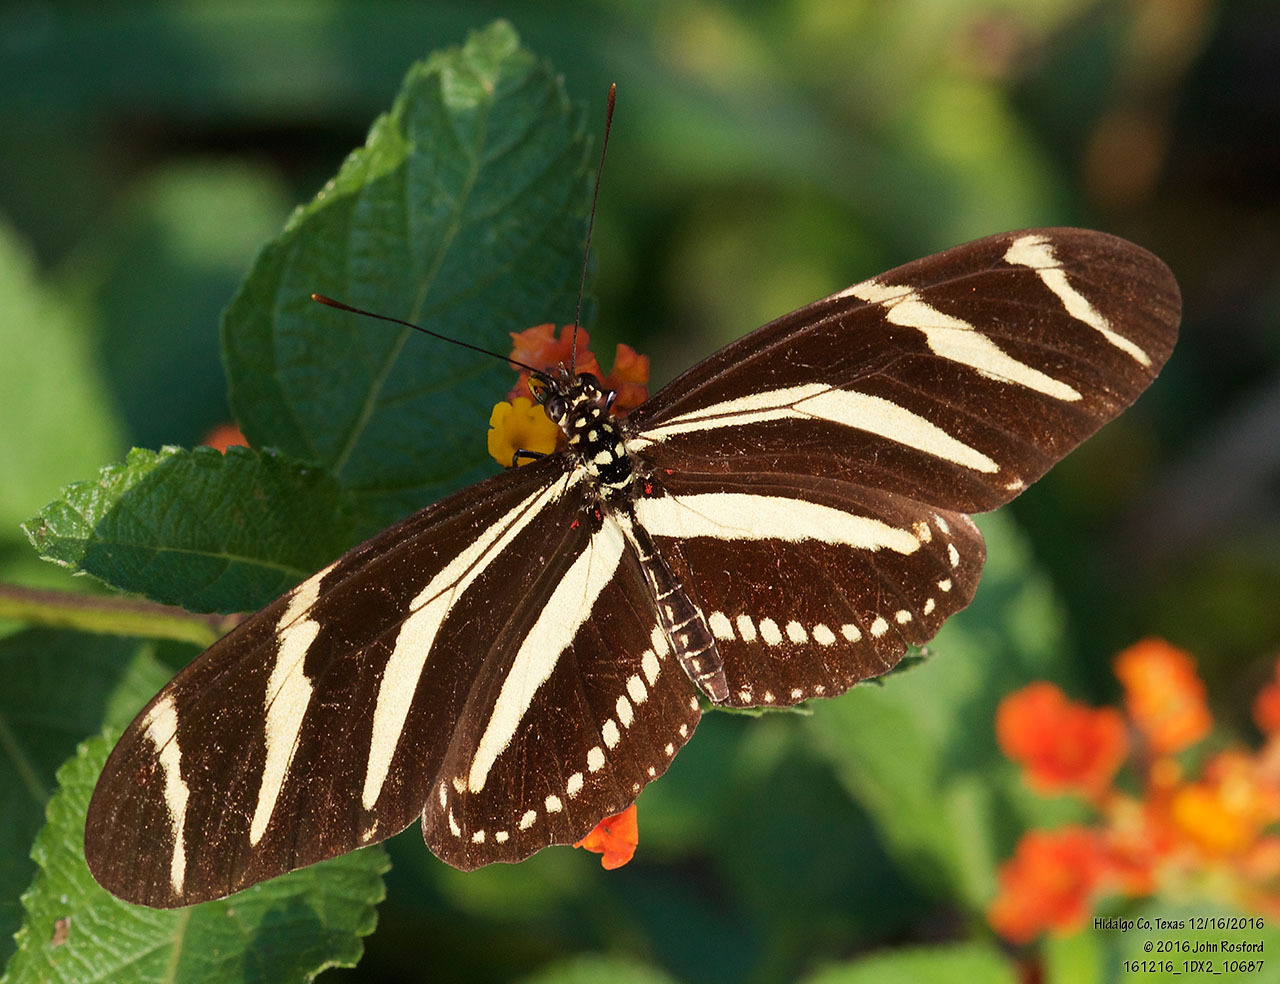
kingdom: Animalia
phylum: Arthropoda
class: Insecta
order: Lepidoptera
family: Nymphalidae
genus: Heliconius
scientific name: Heliconius charithonia
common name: Zebra long wing
